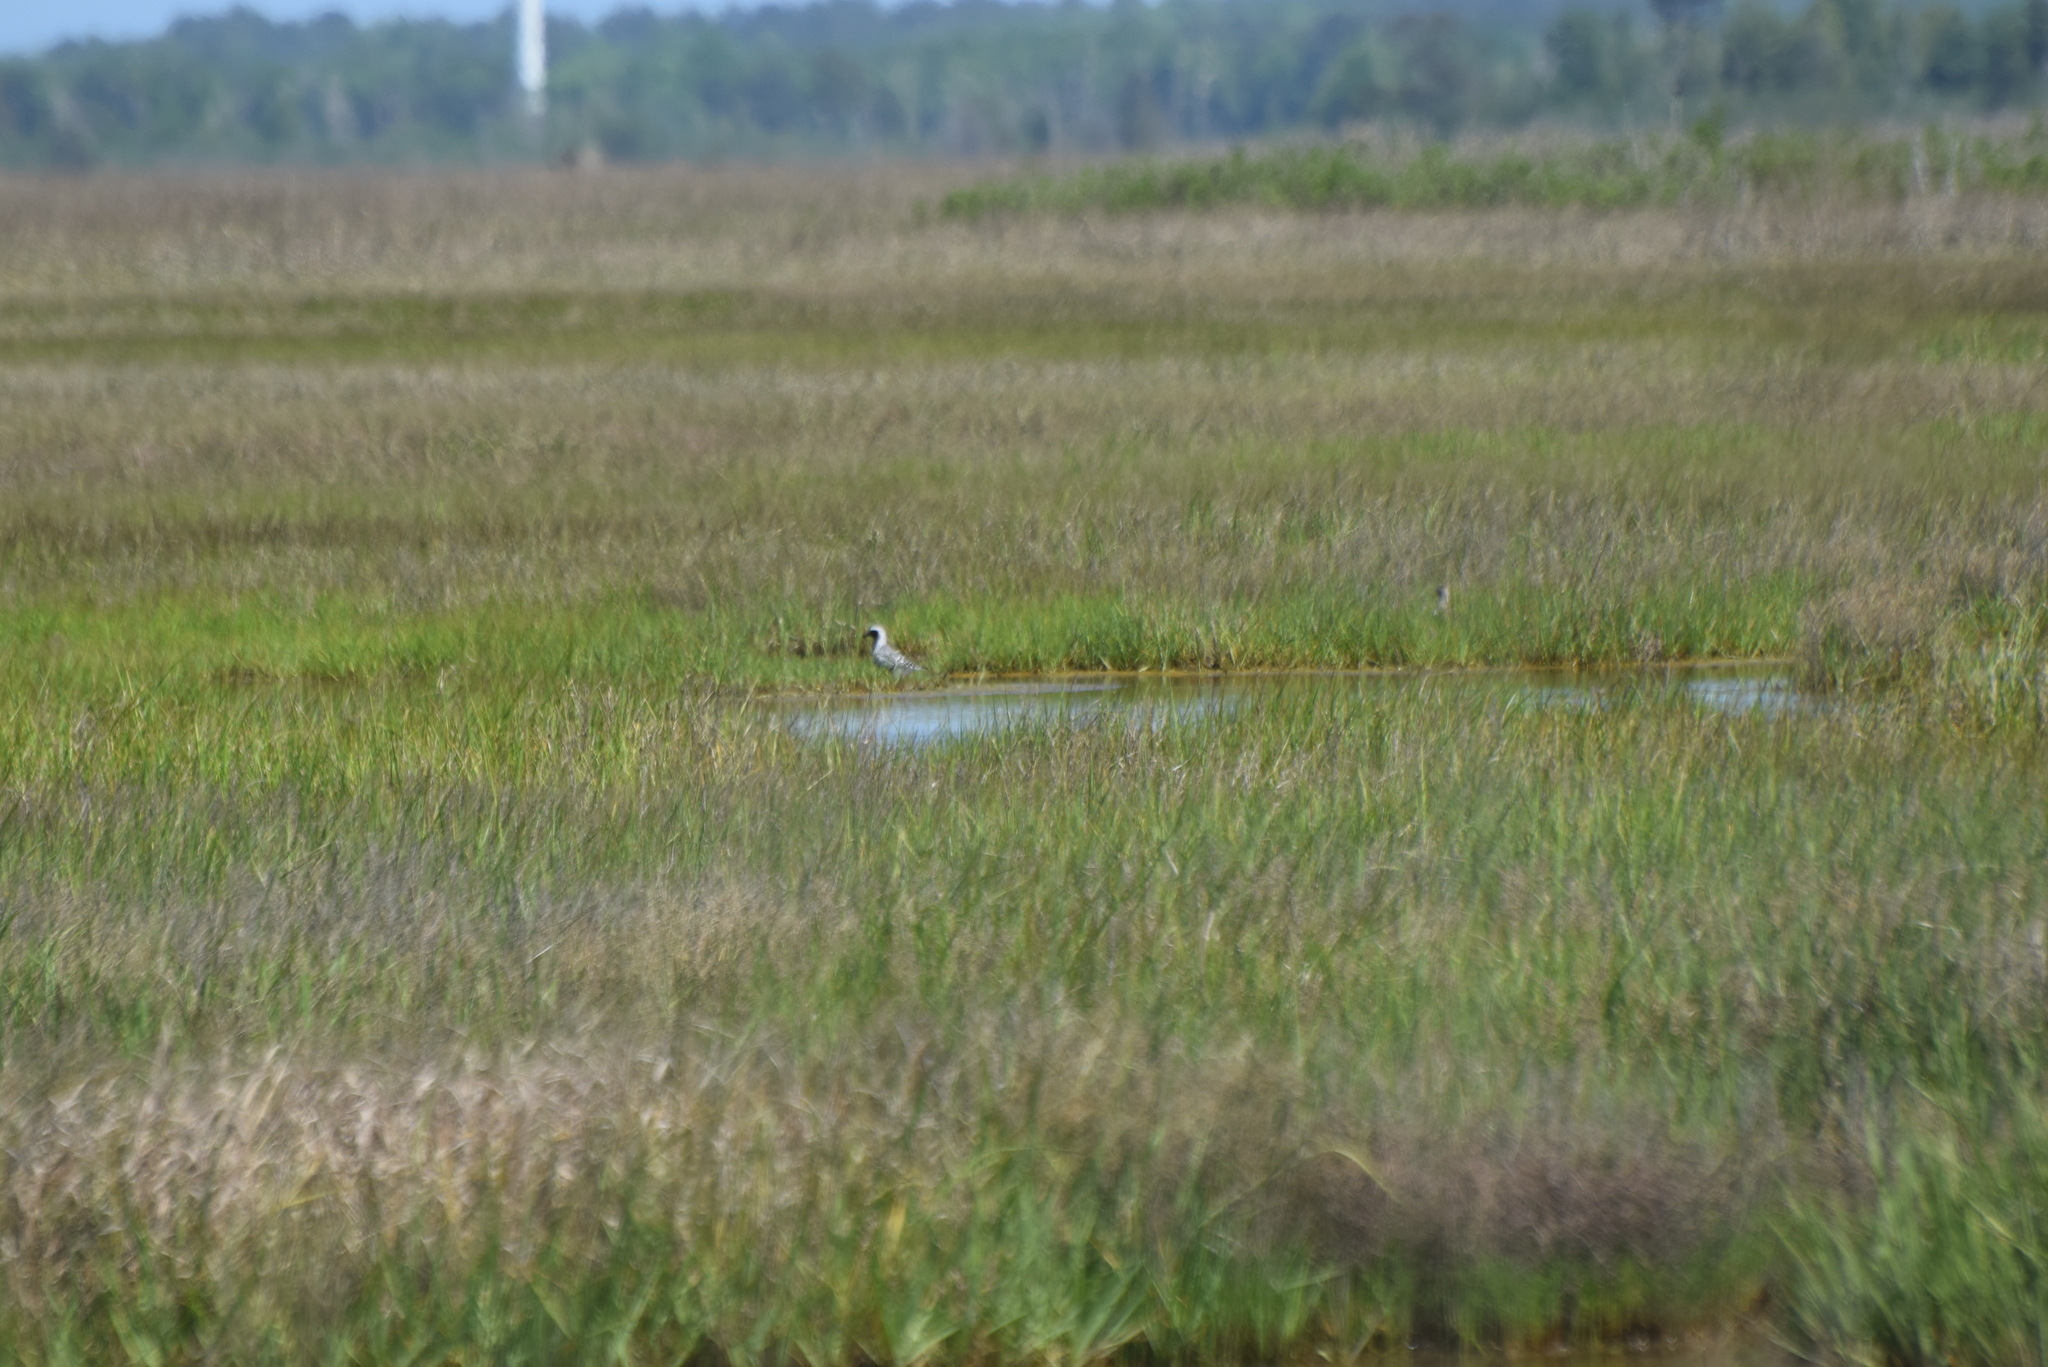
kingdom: Animalia
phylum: Chordata
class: Aves
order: Charadriiformes
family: Charadriidae
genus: Pluvialis
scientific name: Pluvialis squatarola
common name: Grey plover
